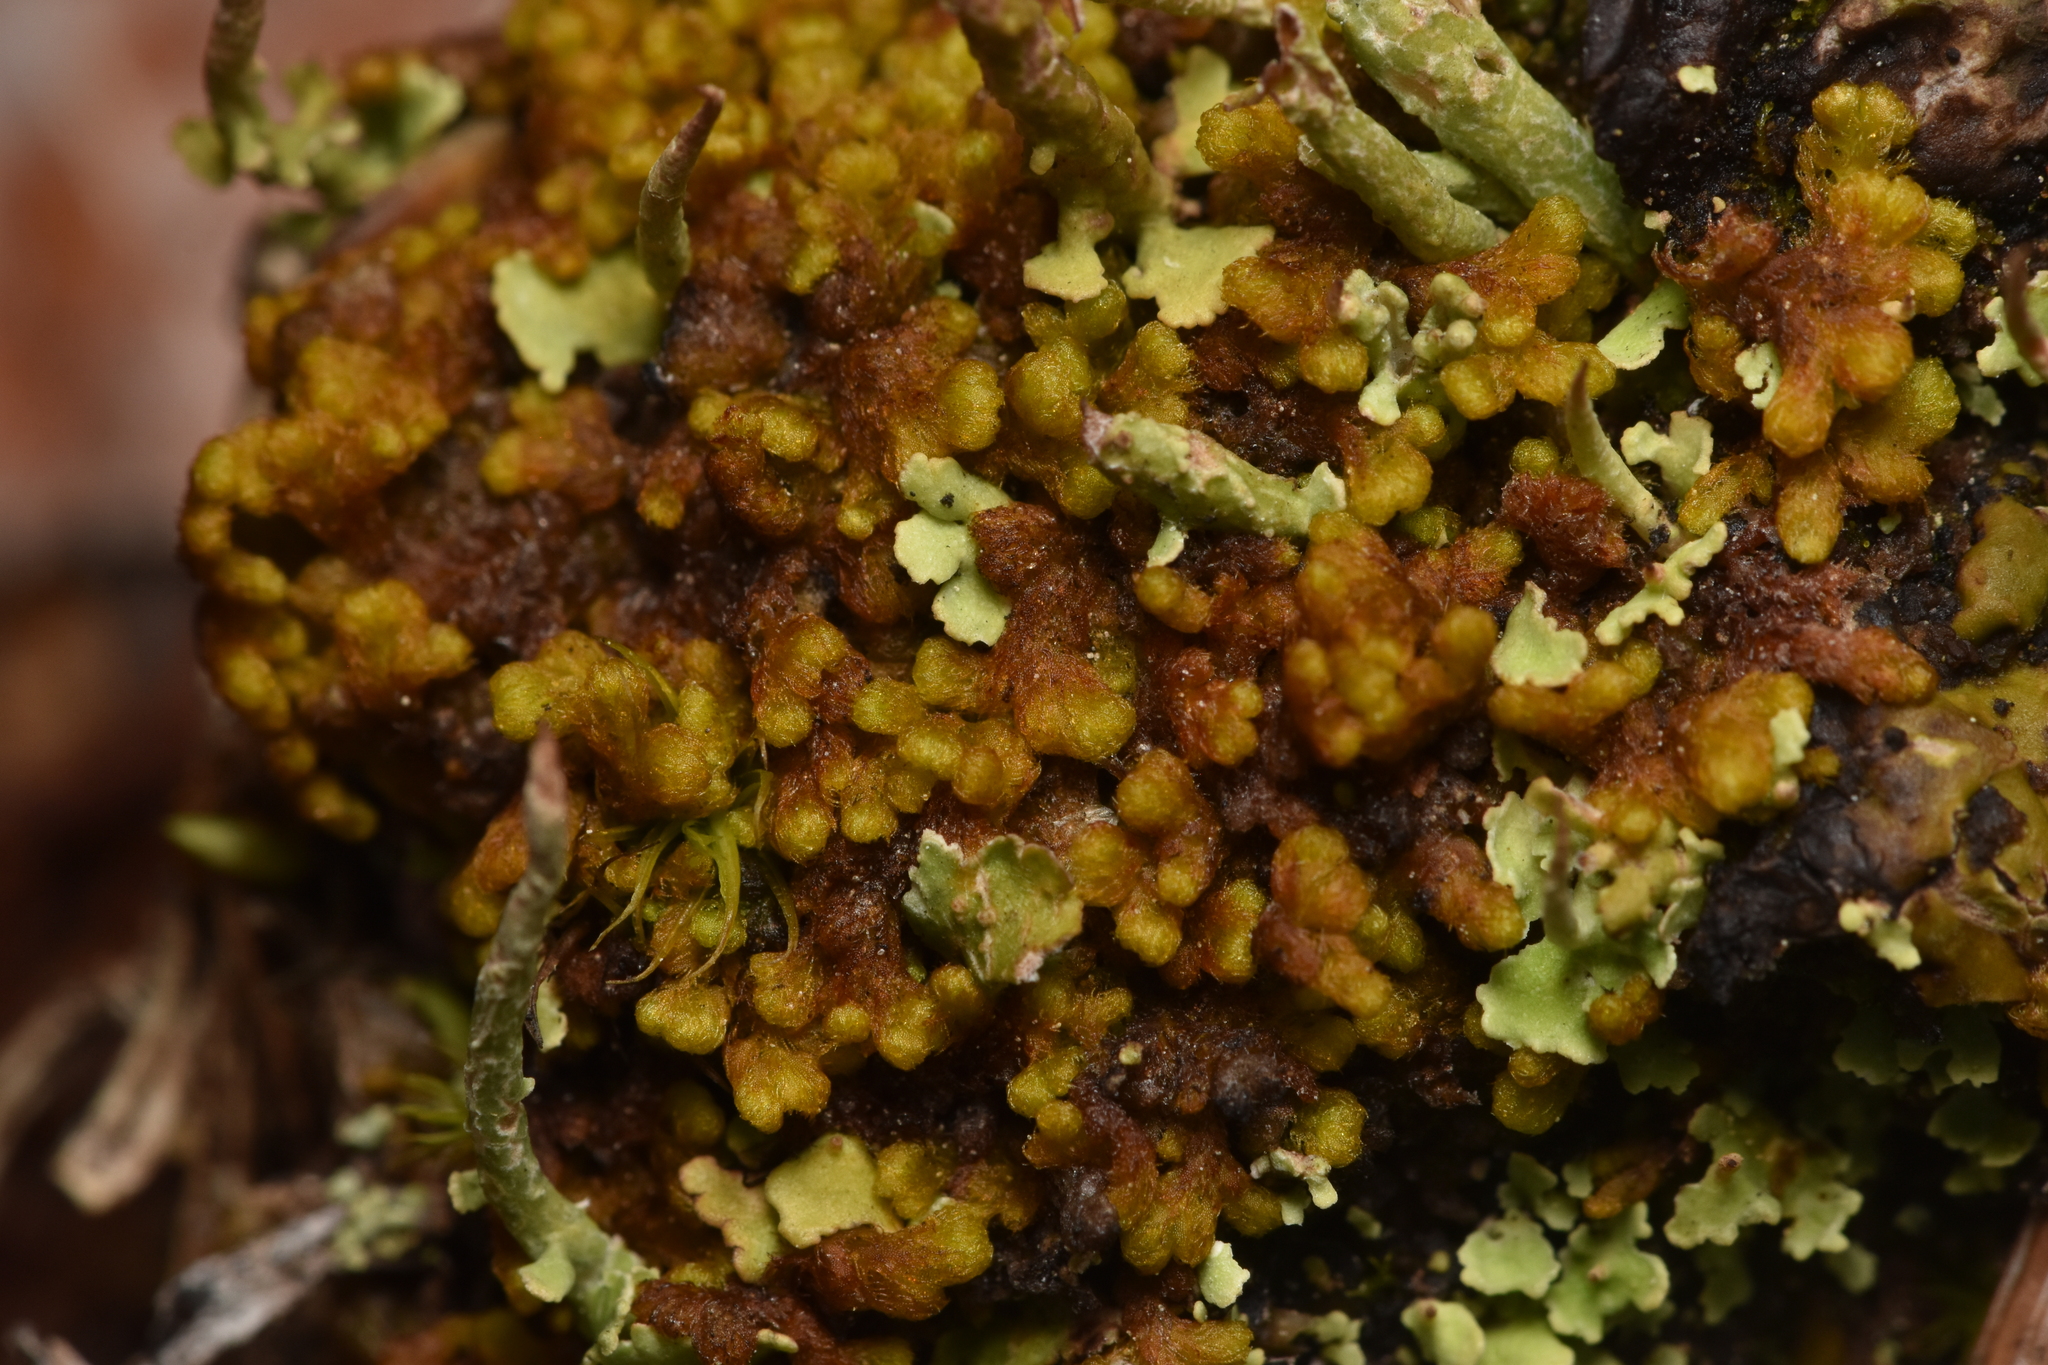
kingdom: Plantae
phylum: Marchantiophyta
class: Jungermanniopsida
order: Ptilidiales
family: Ptilidiaceae
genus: Ptilidium
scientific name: Ptilidium pulcherrimum
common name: Tree fringewort
